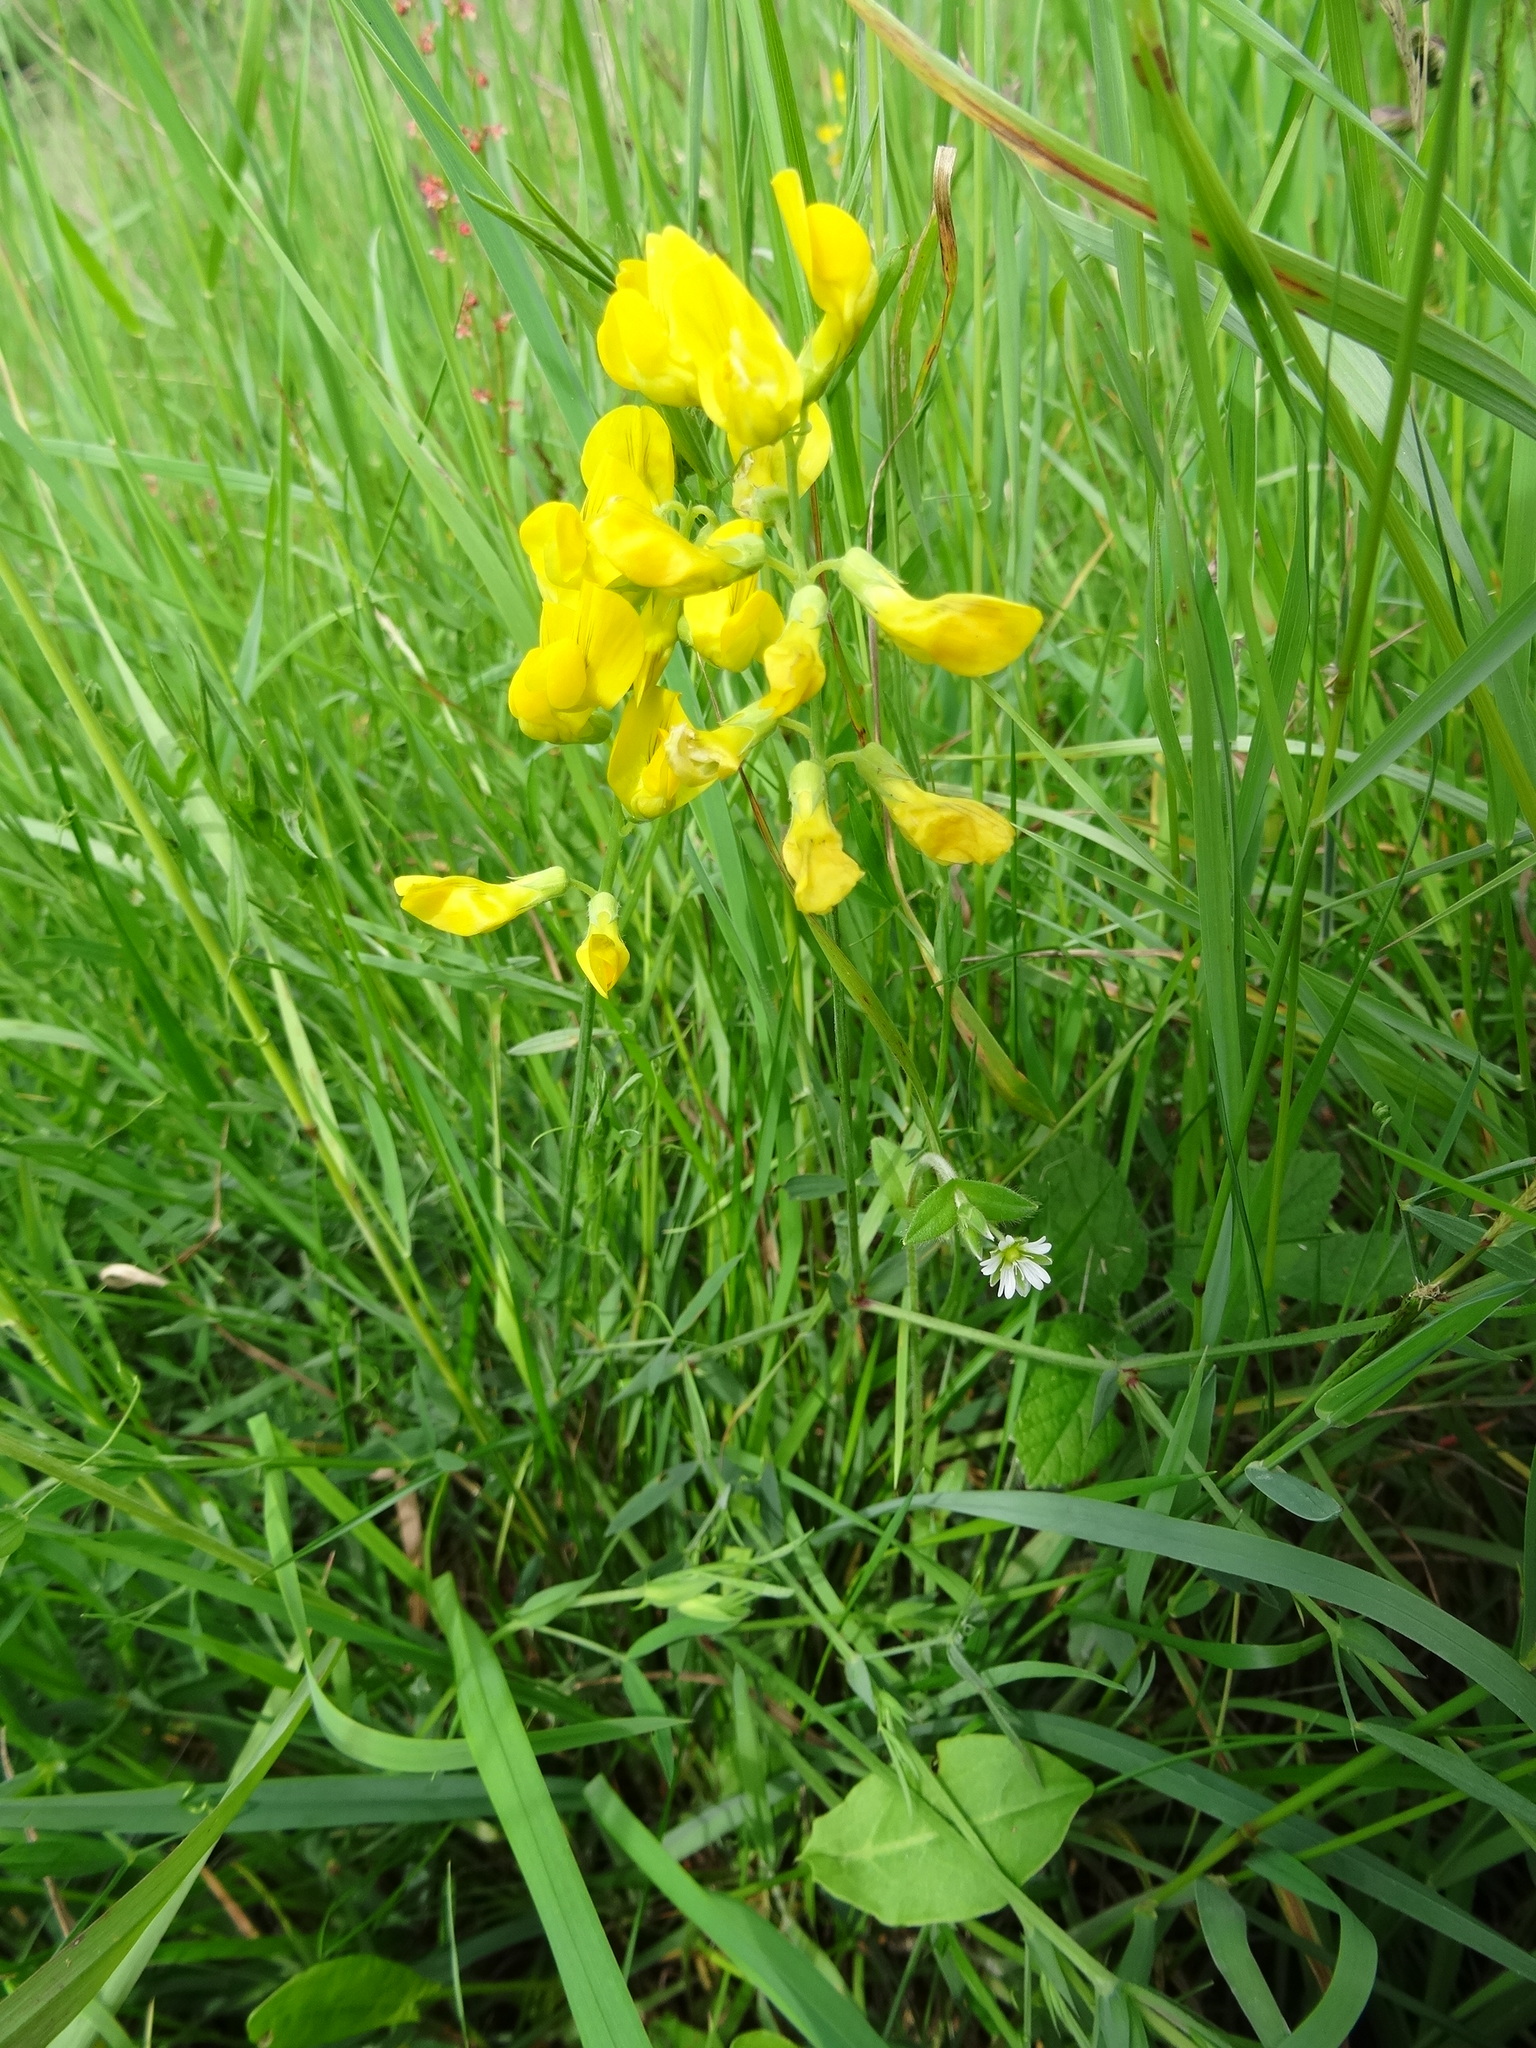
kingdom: Plantae
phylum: Tracheophyta
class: Magnoliopsida
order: Fabales
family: Fabaceae
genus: Lathyrus
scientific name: Lathyrus pratensis
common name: Meadow vetchling
